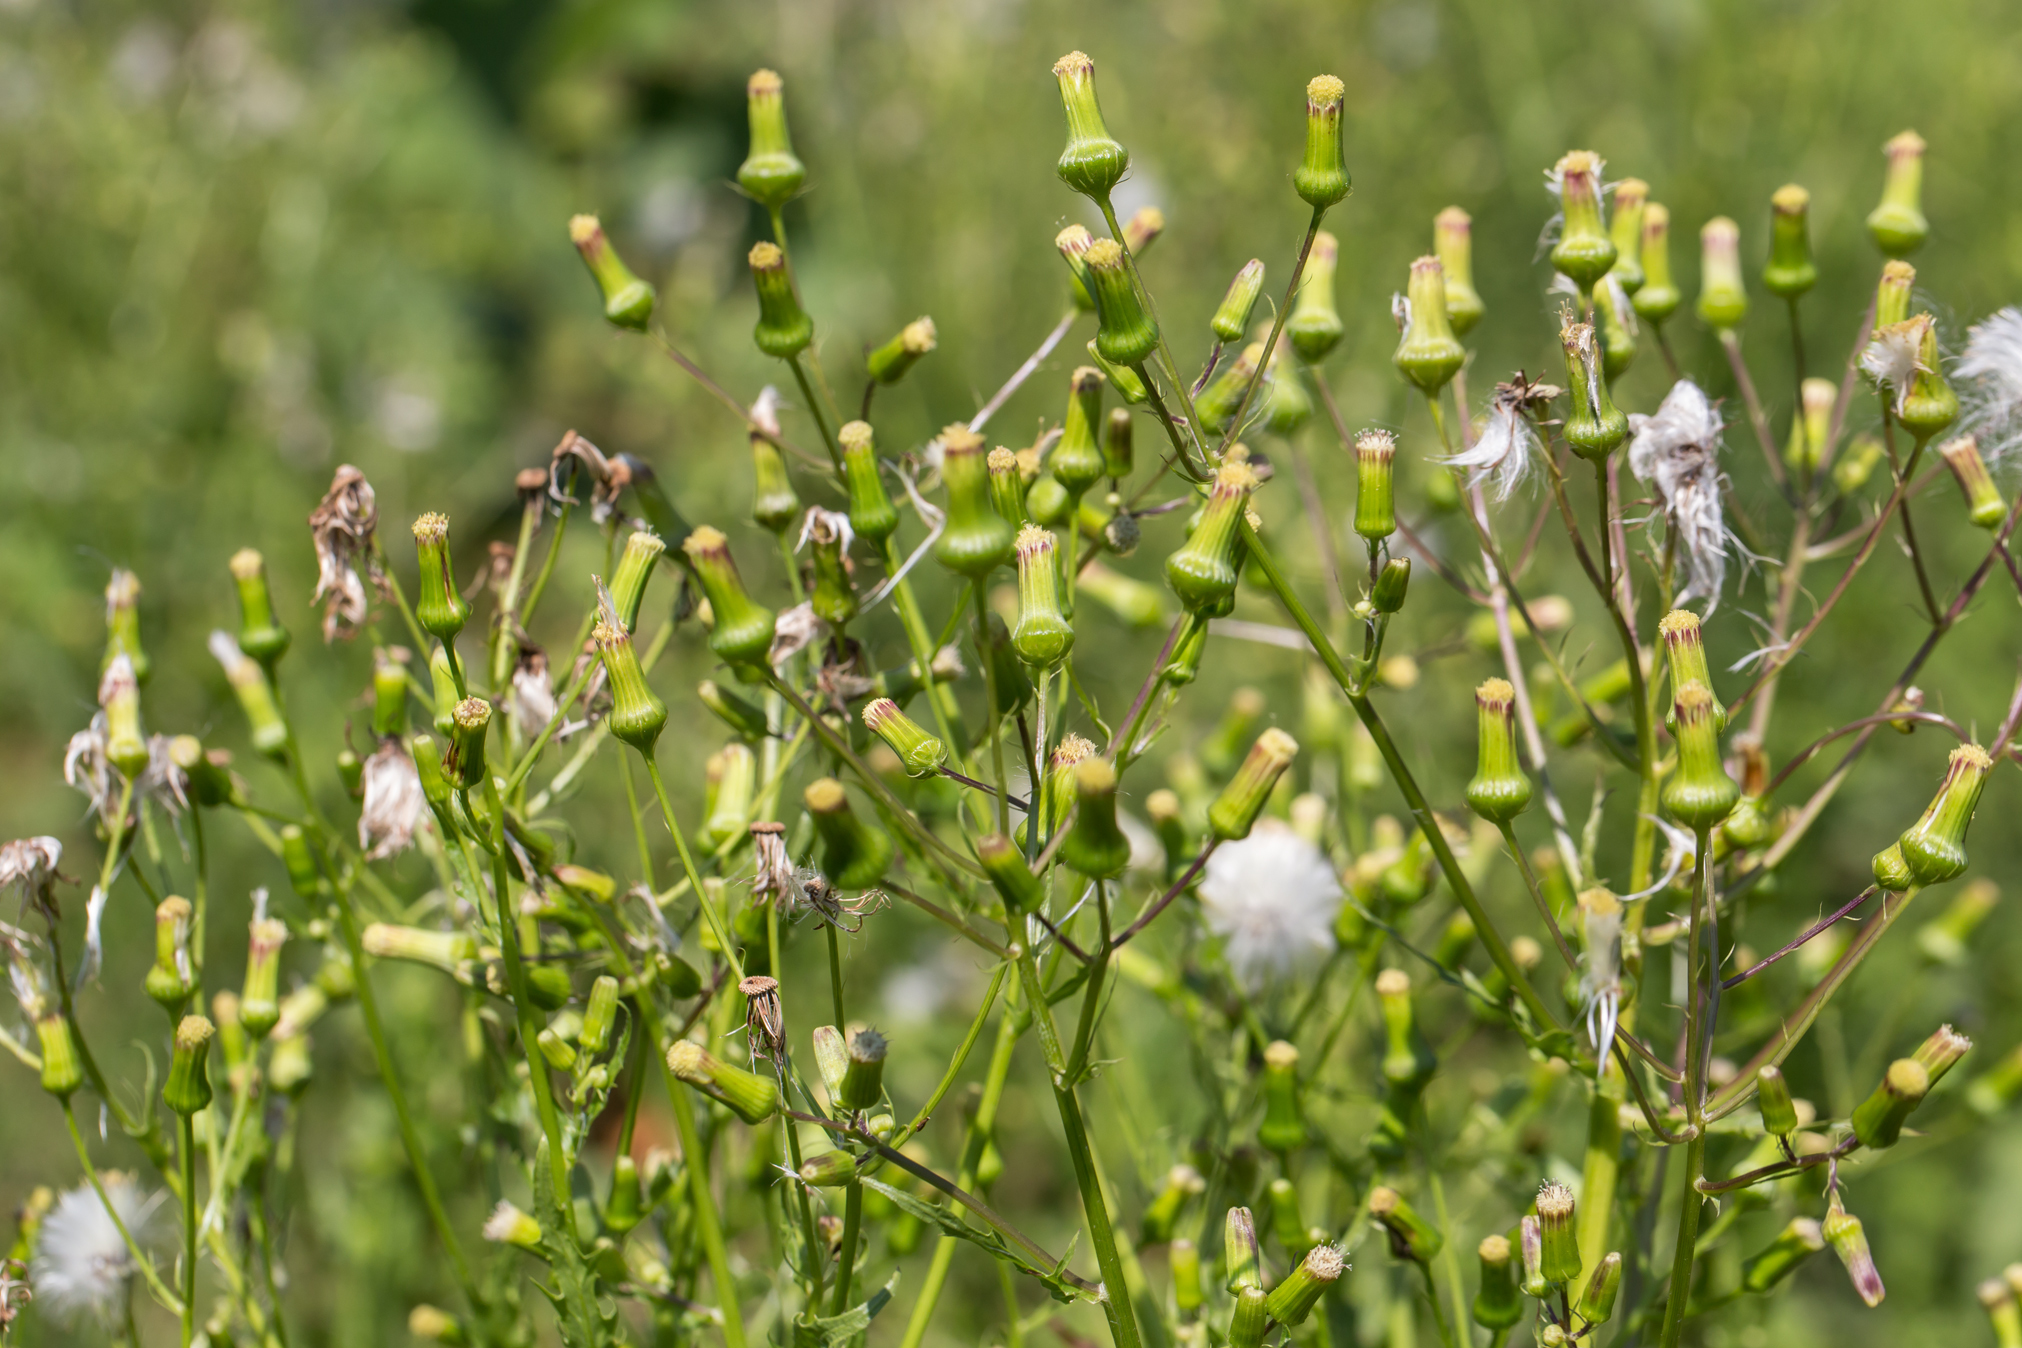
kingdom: Plantae
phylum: Tracheophyta
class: Magnoliopsida
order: Asterales
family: Asteraceae
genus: Erechtites
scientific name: Erechtites hieraciifolius
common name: American burnweed
